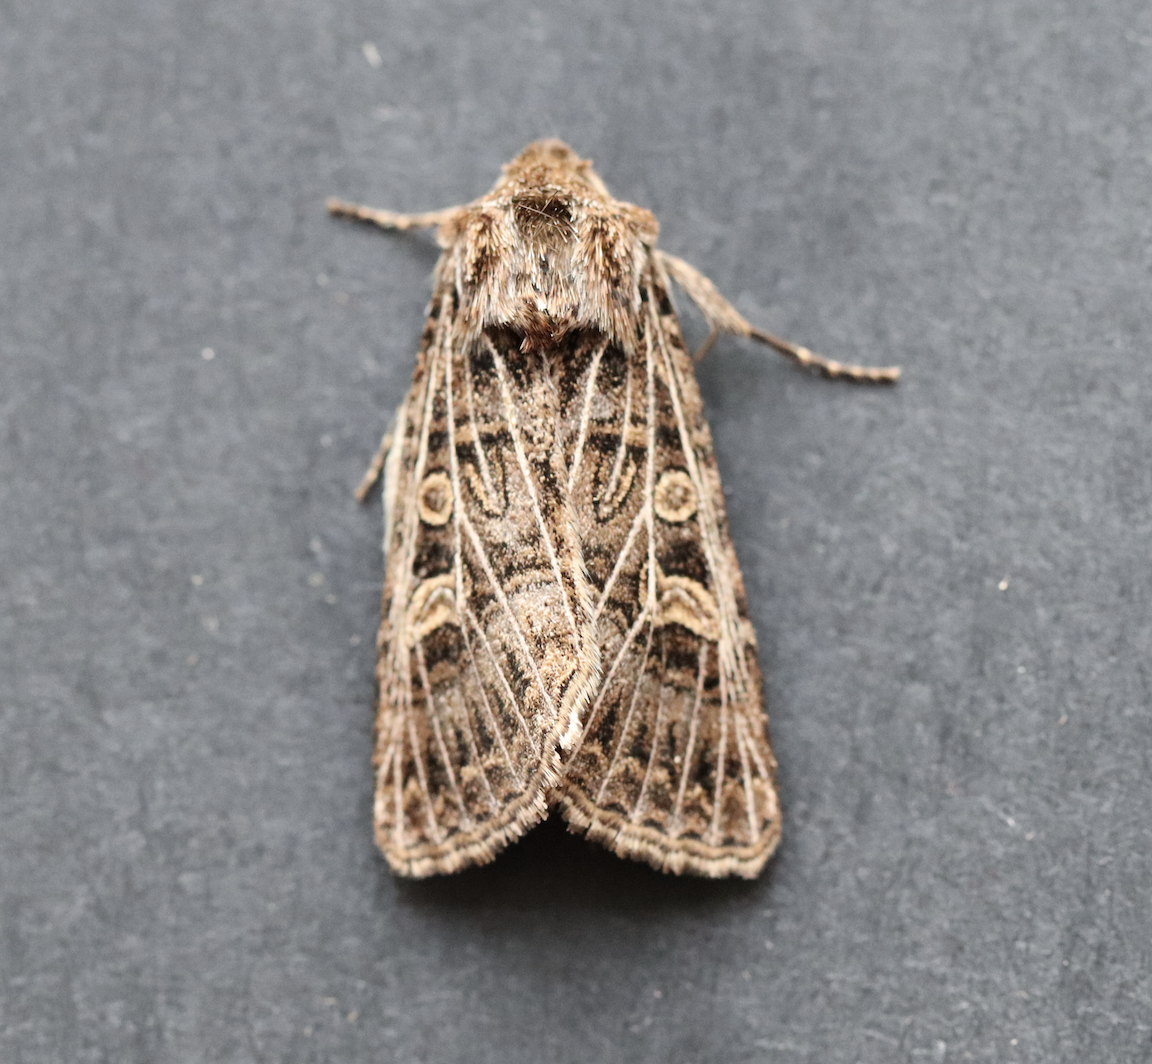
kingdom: Animalia
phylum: Arthropoda
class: Insecta
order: Lepidoptera
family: Noctuidae
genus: Tholera
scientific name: Tholera decimalis
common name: Feathered gothic
